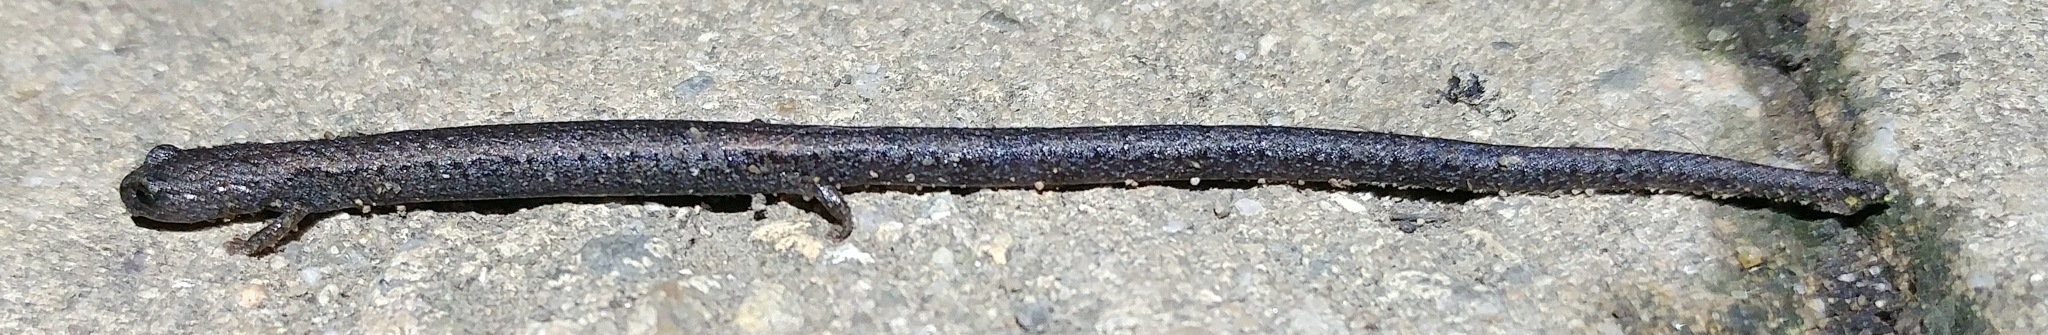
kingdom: Animalia
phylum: Chordata
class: Amphibia
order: Caudata
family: Plethodontidae
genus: Batrachoseps
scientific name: Batrachoseps nigriventris
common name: Black-bellied slender salamander
